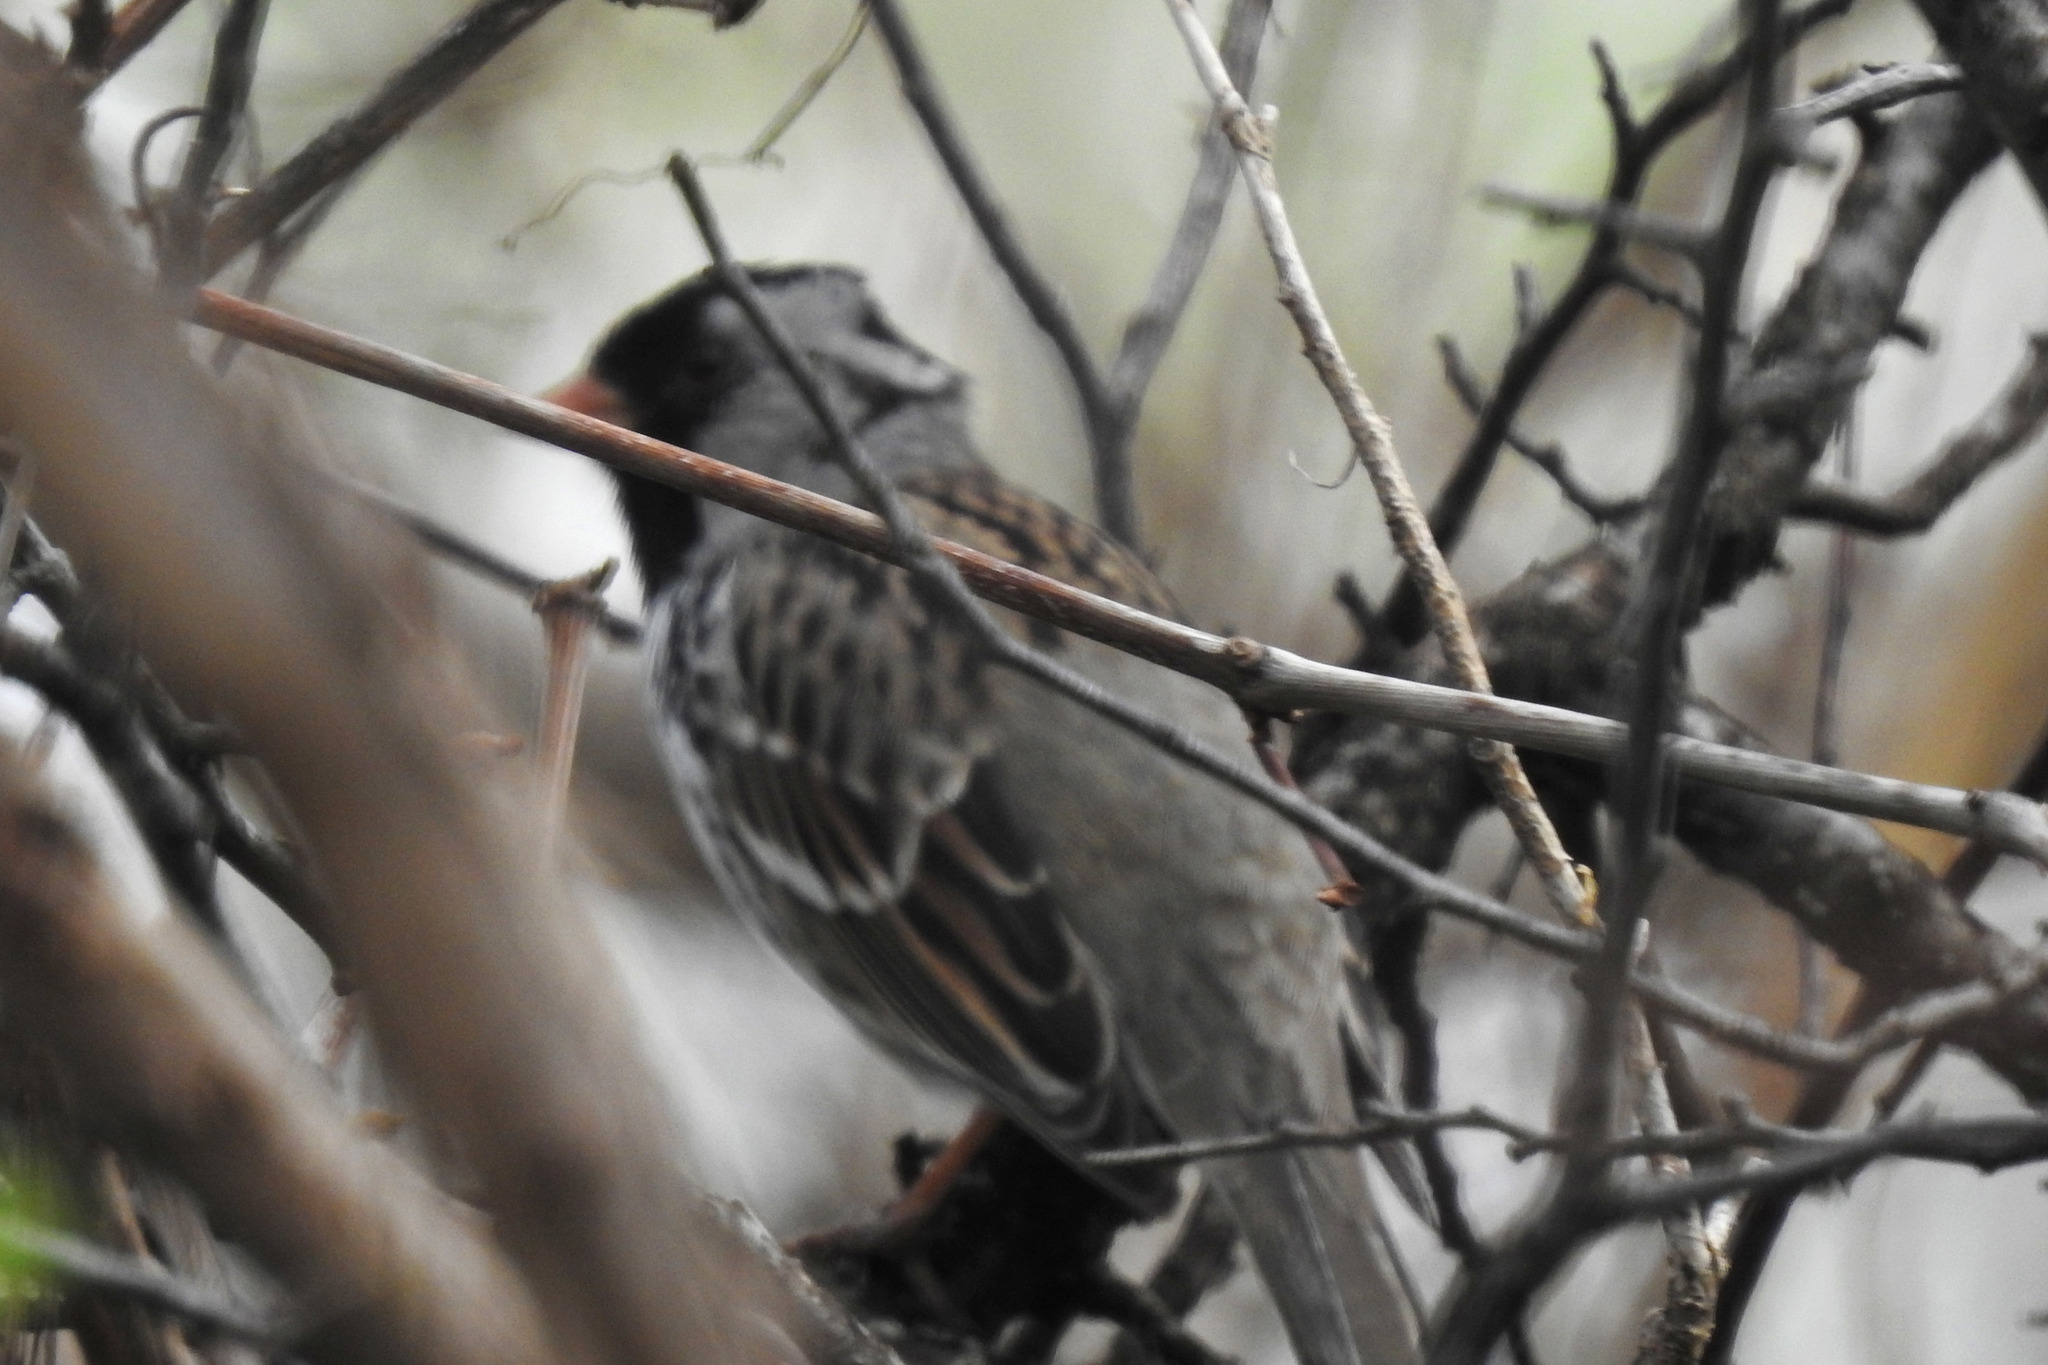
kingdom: Animalia
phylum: Chordata
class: Aves
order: Passeriformes
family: Passerellidae
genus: Zonotrichia
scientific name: Zonotrichia querula
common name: Harris's sparrow
